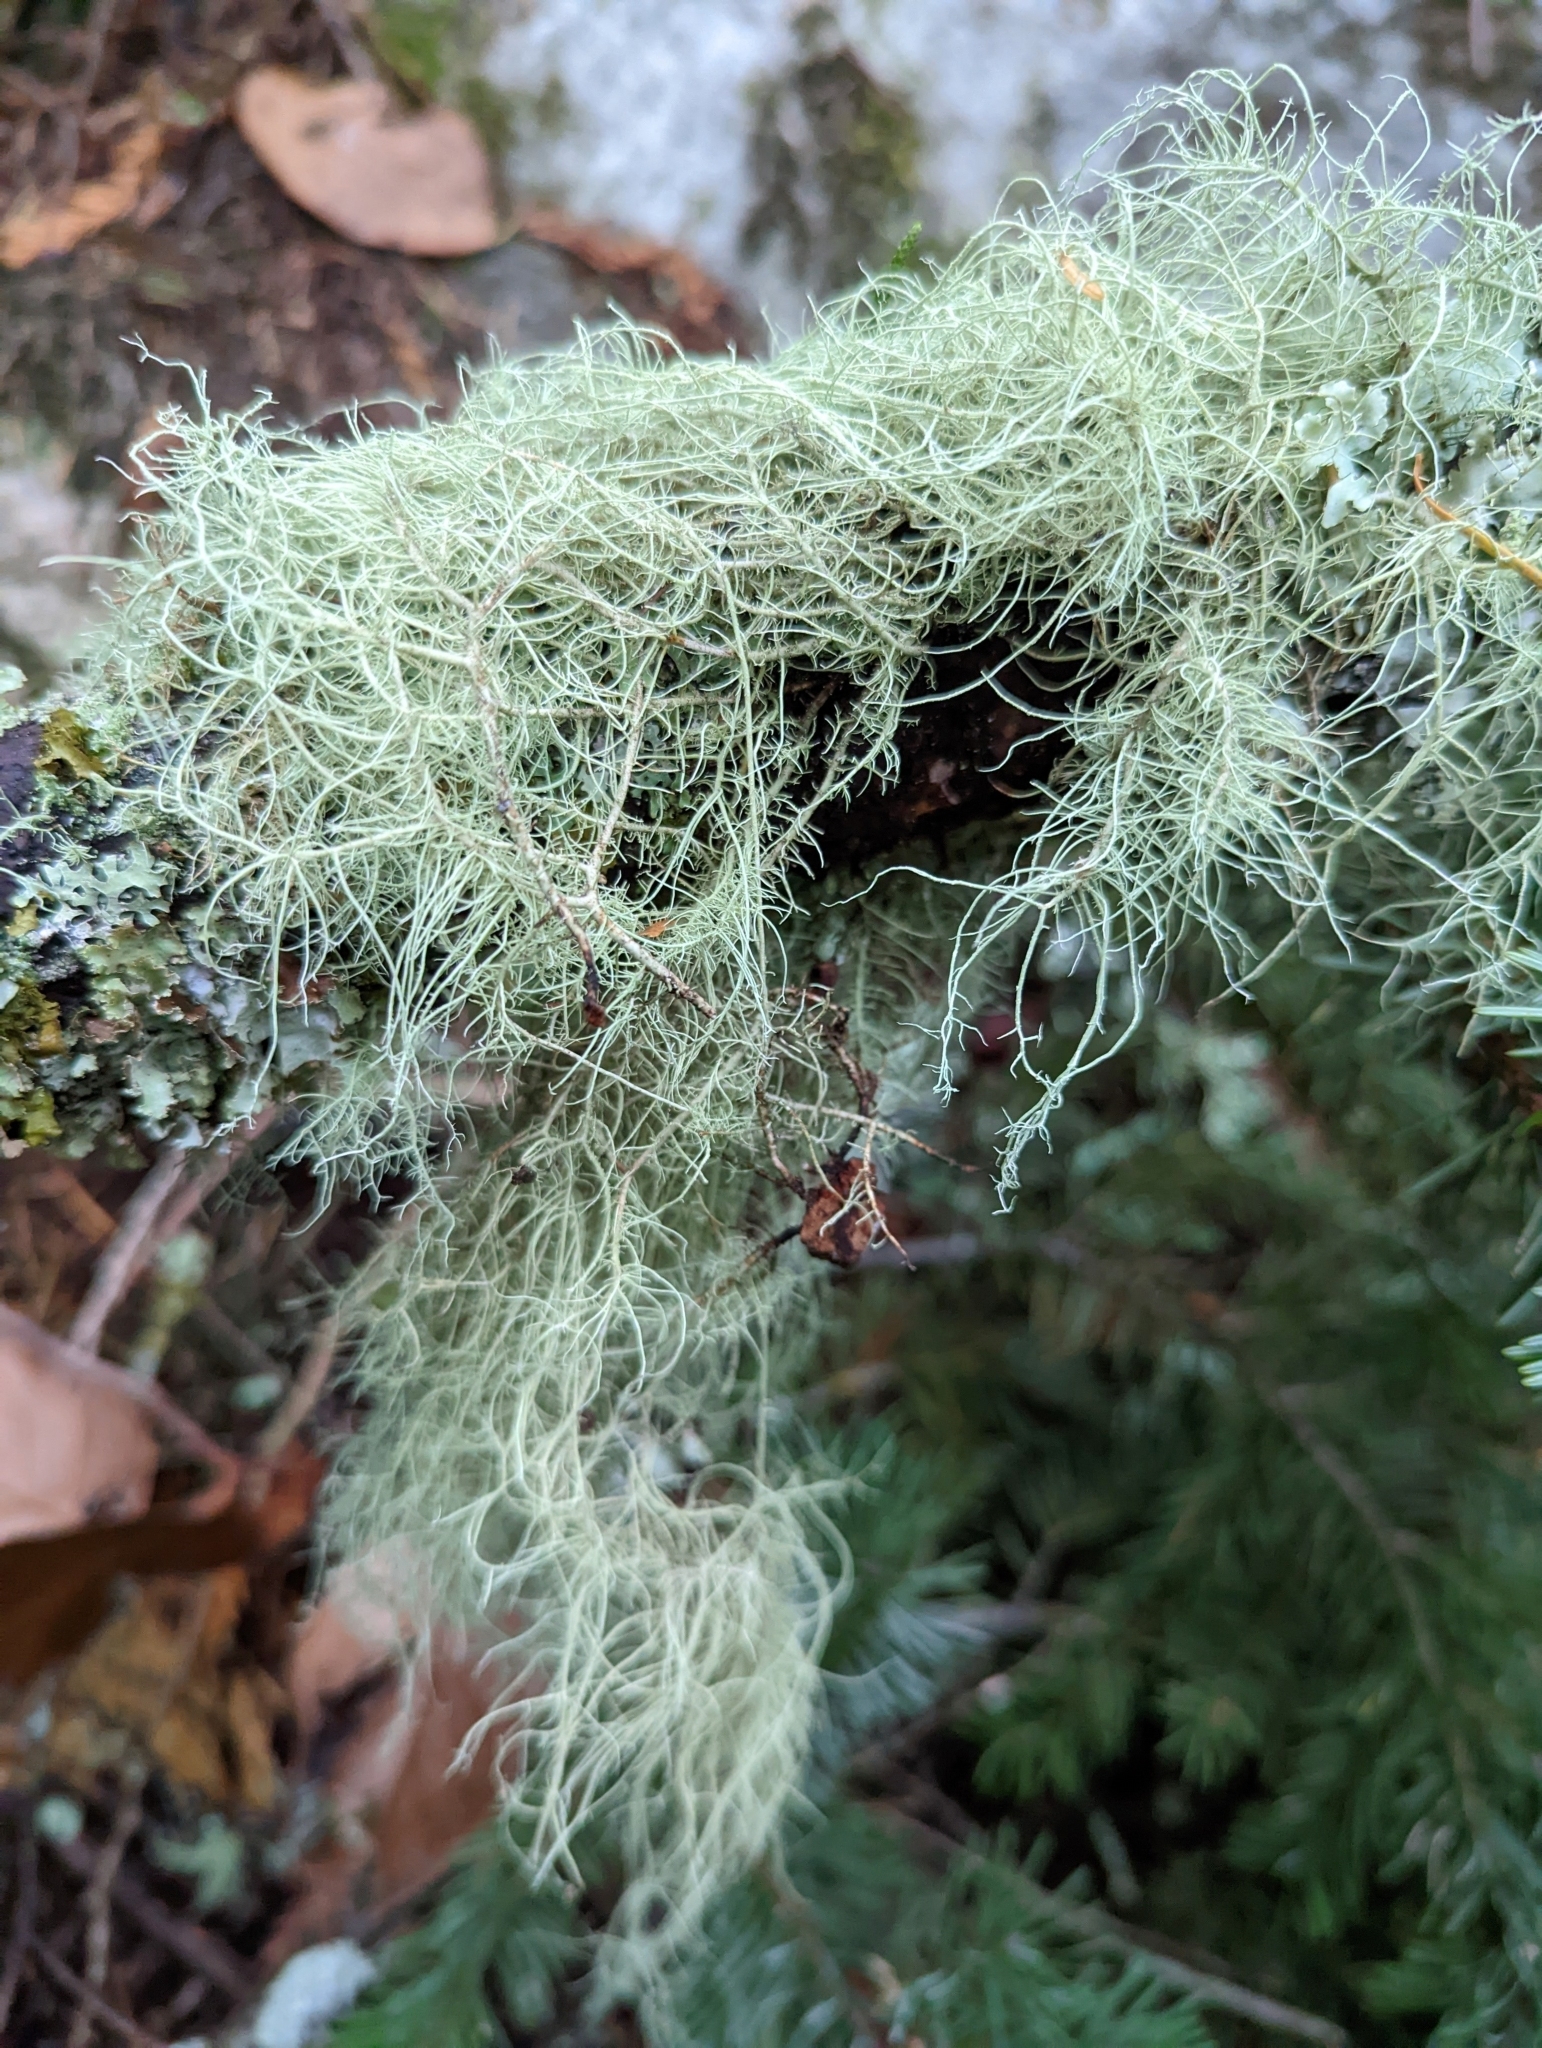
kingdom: Fungi
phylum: Ascomycota
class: Lecanoromycetes
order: Lecanorales
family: Parmeliaceae
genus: Usnea
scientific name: Usnea dasopoga
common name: Fishbone beard lichen
